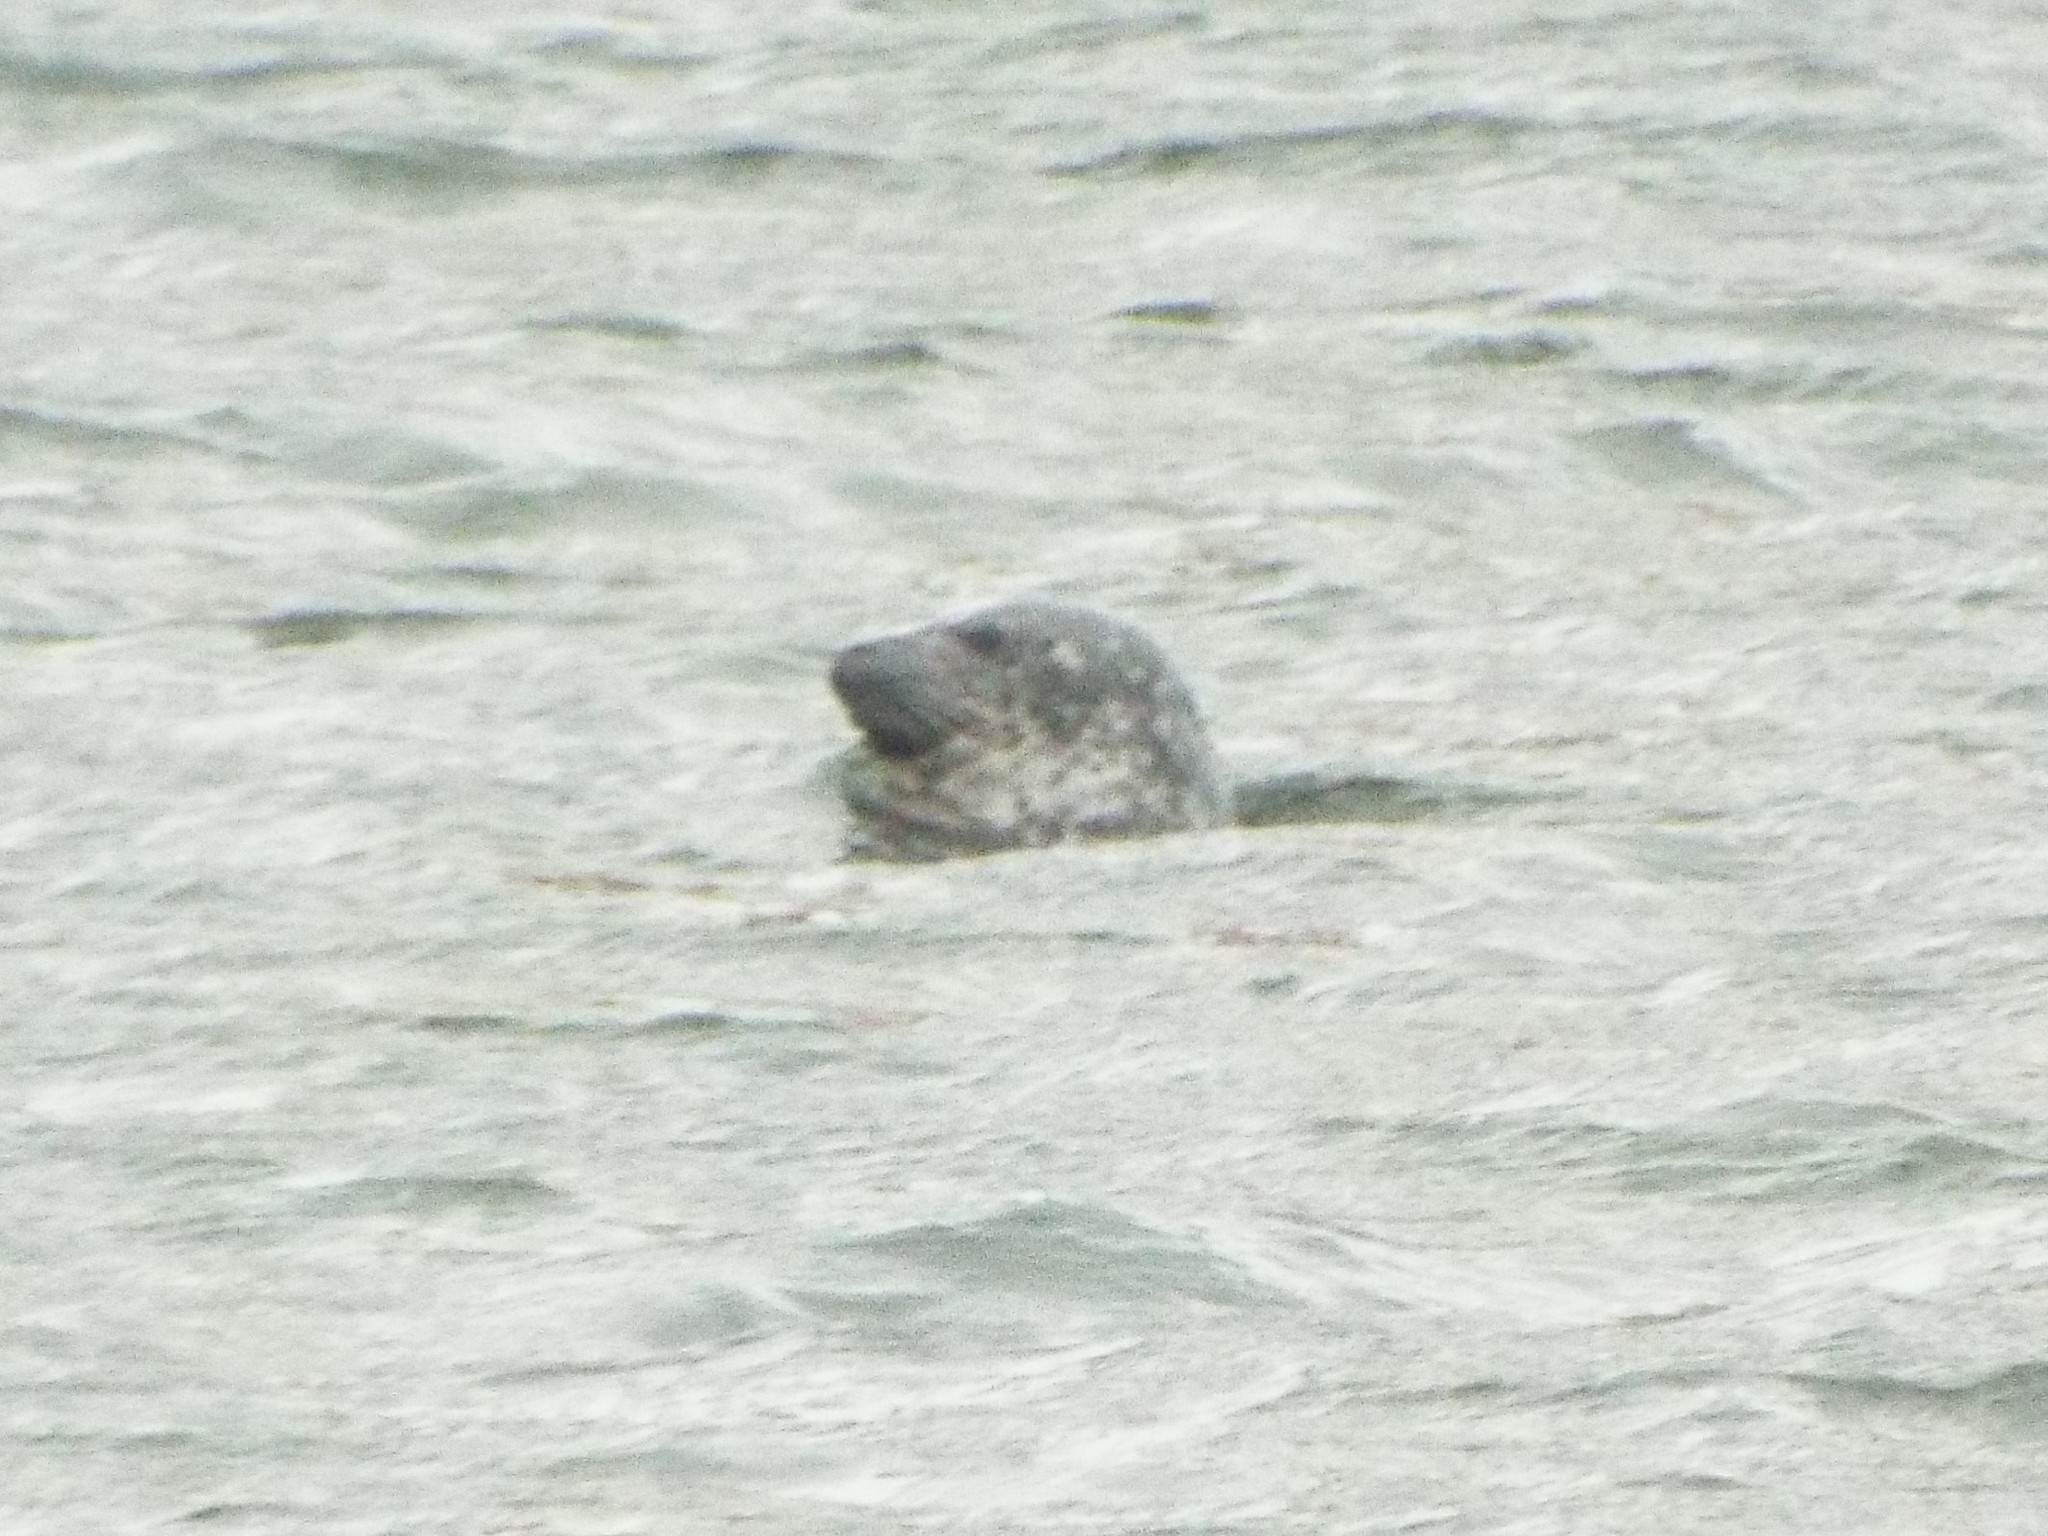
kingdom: Animalia
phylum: Chordata
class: Mammalia
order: Carnivora
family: Phocidae
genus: Phoca
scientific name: Phoca vitulina
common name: Harbor seal
